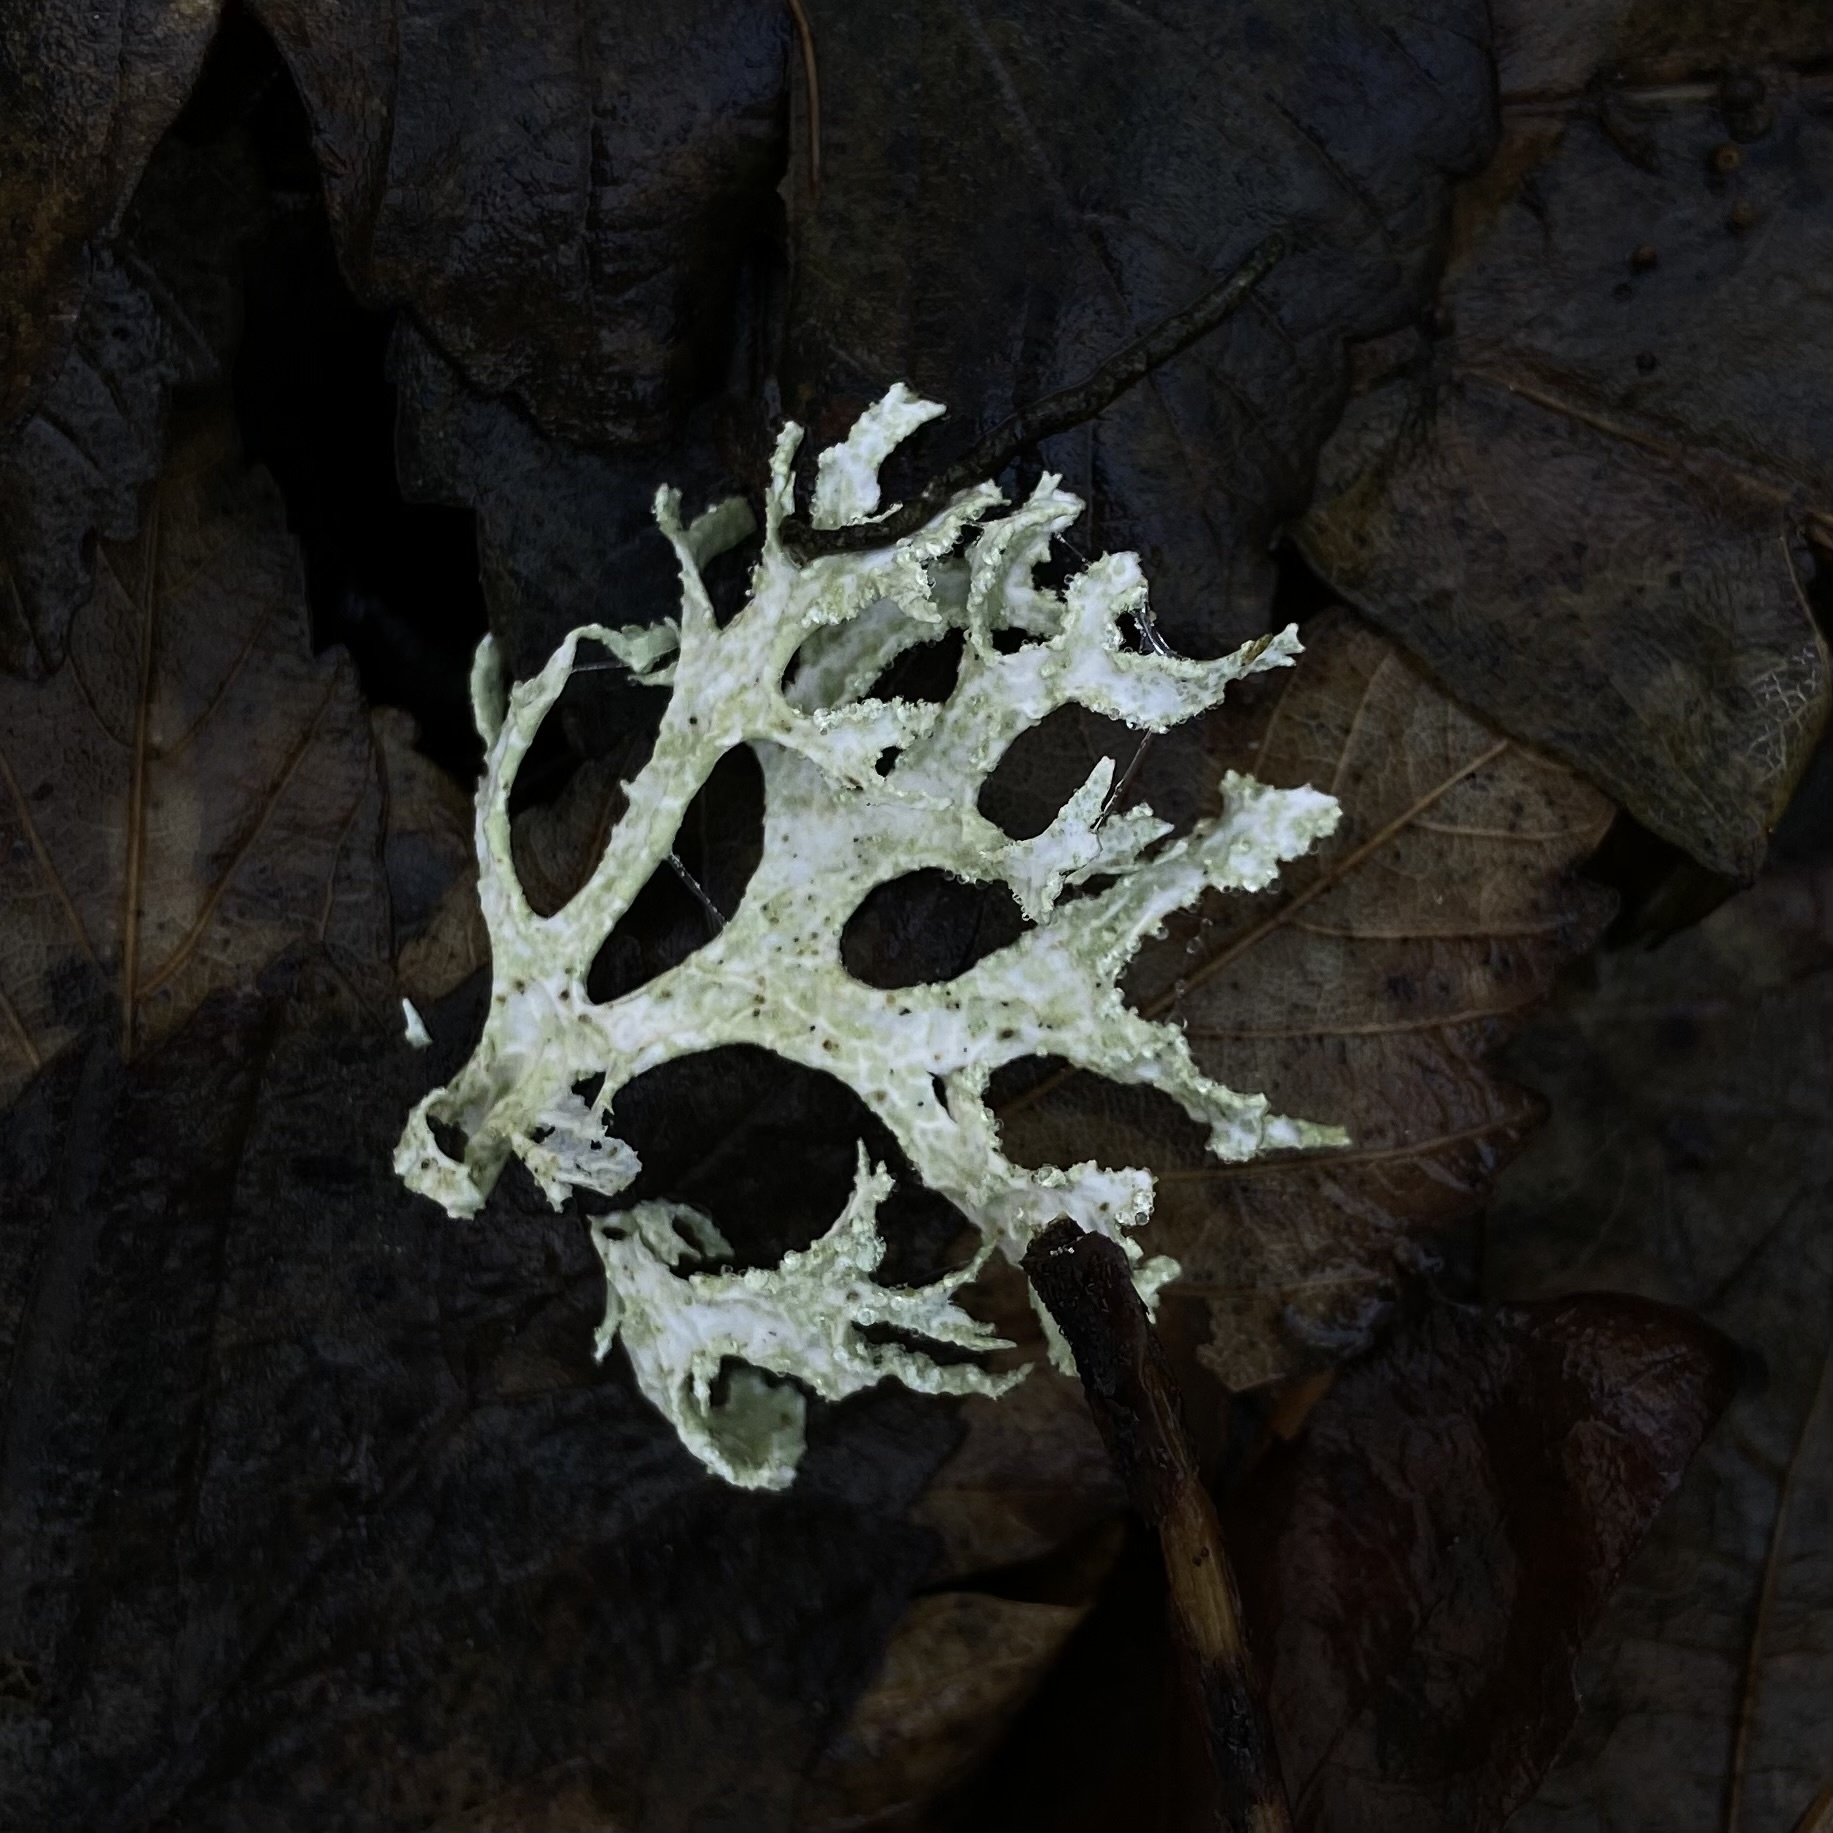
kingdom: Fungi
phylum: Ascomycota
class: Lecanoromycetes
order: Lecanorales
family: Parmeliaceae
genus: Evernia
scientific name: Evernia prunastri
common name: Oak moss
